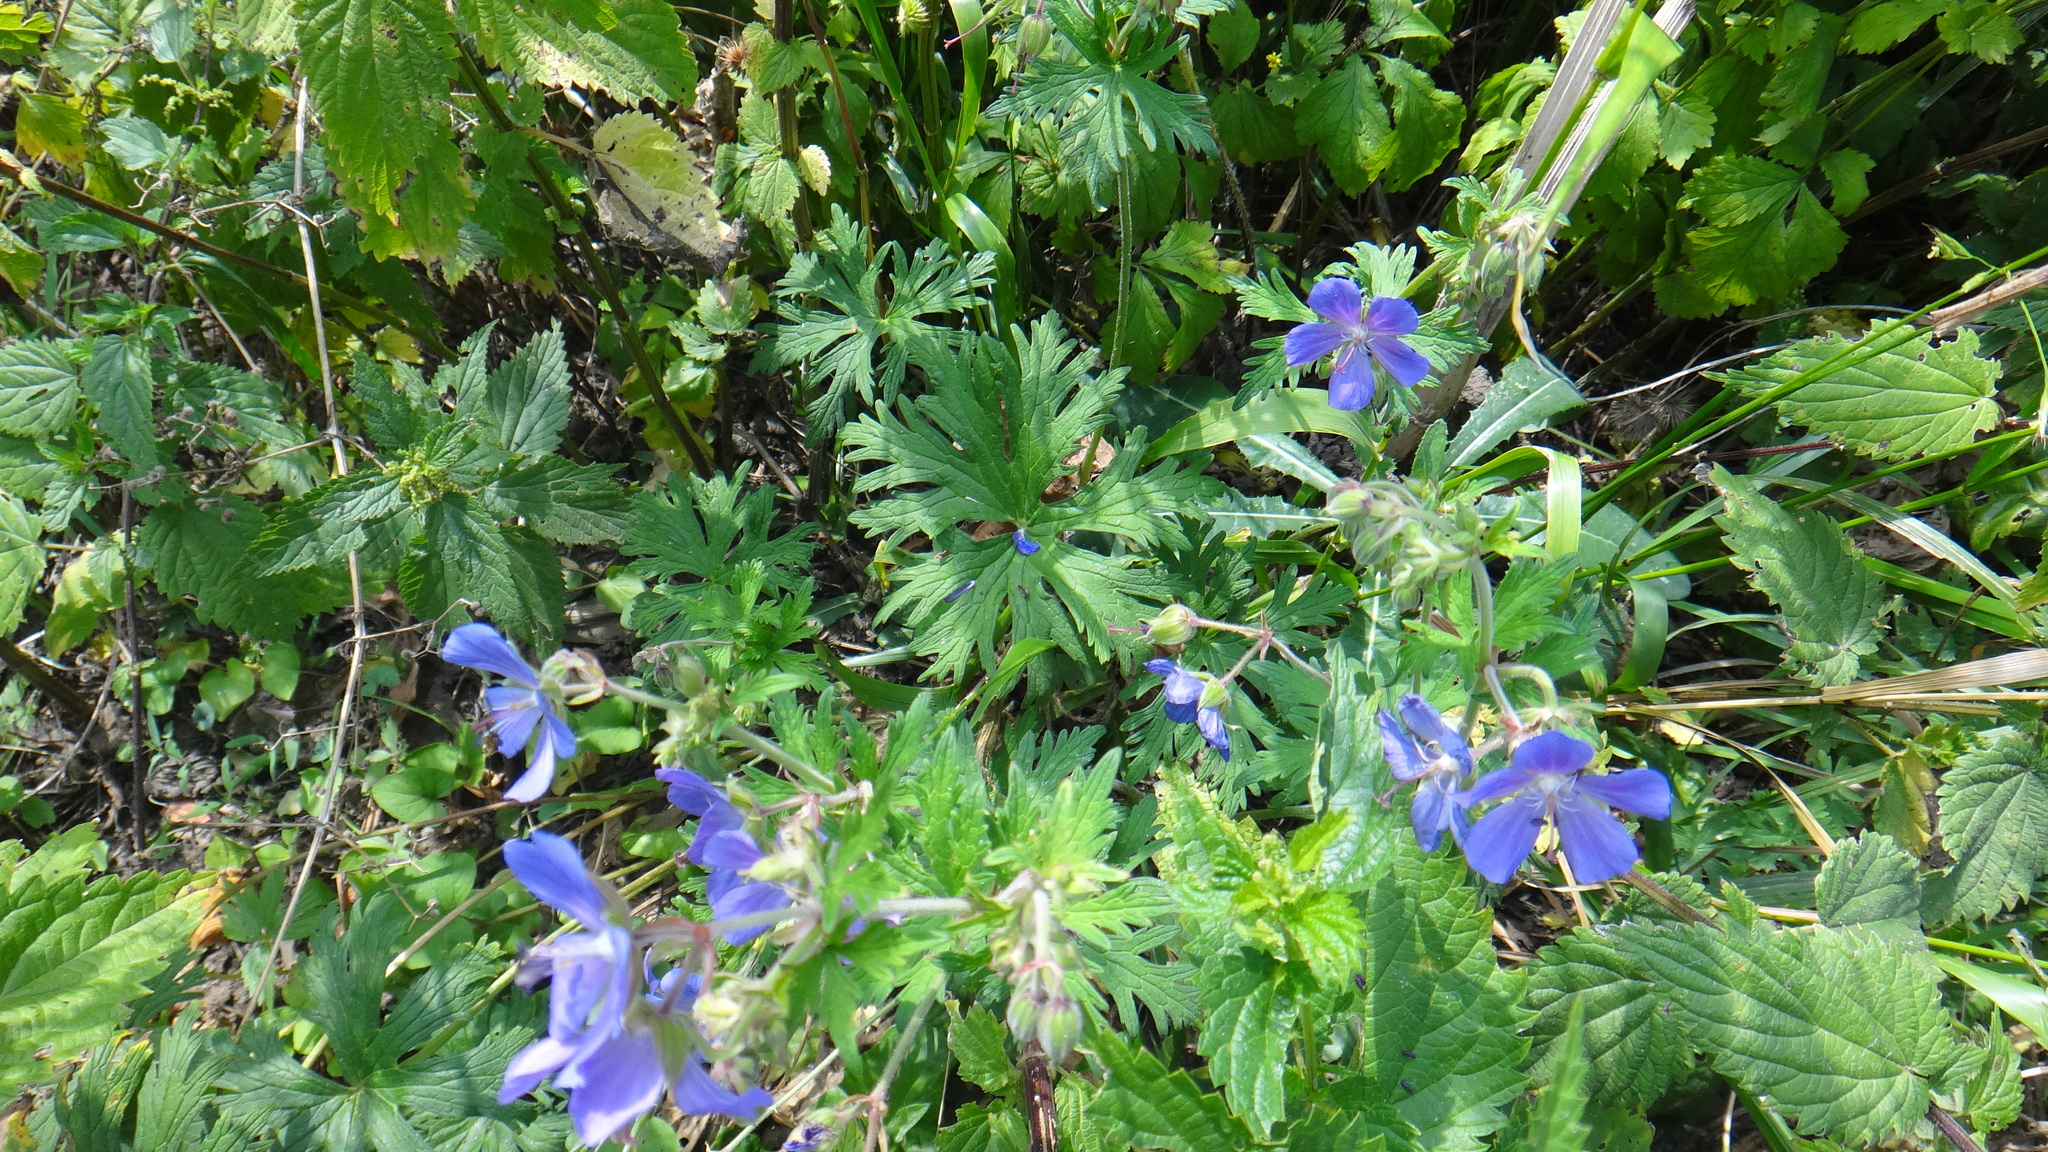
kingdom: Plantae
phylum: Tracheophyta
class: Magnoliopsida
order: Geraniales
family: Geraniaceae
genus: Geranium
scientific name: Geranium pratense
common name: Meadow crane's-bill
